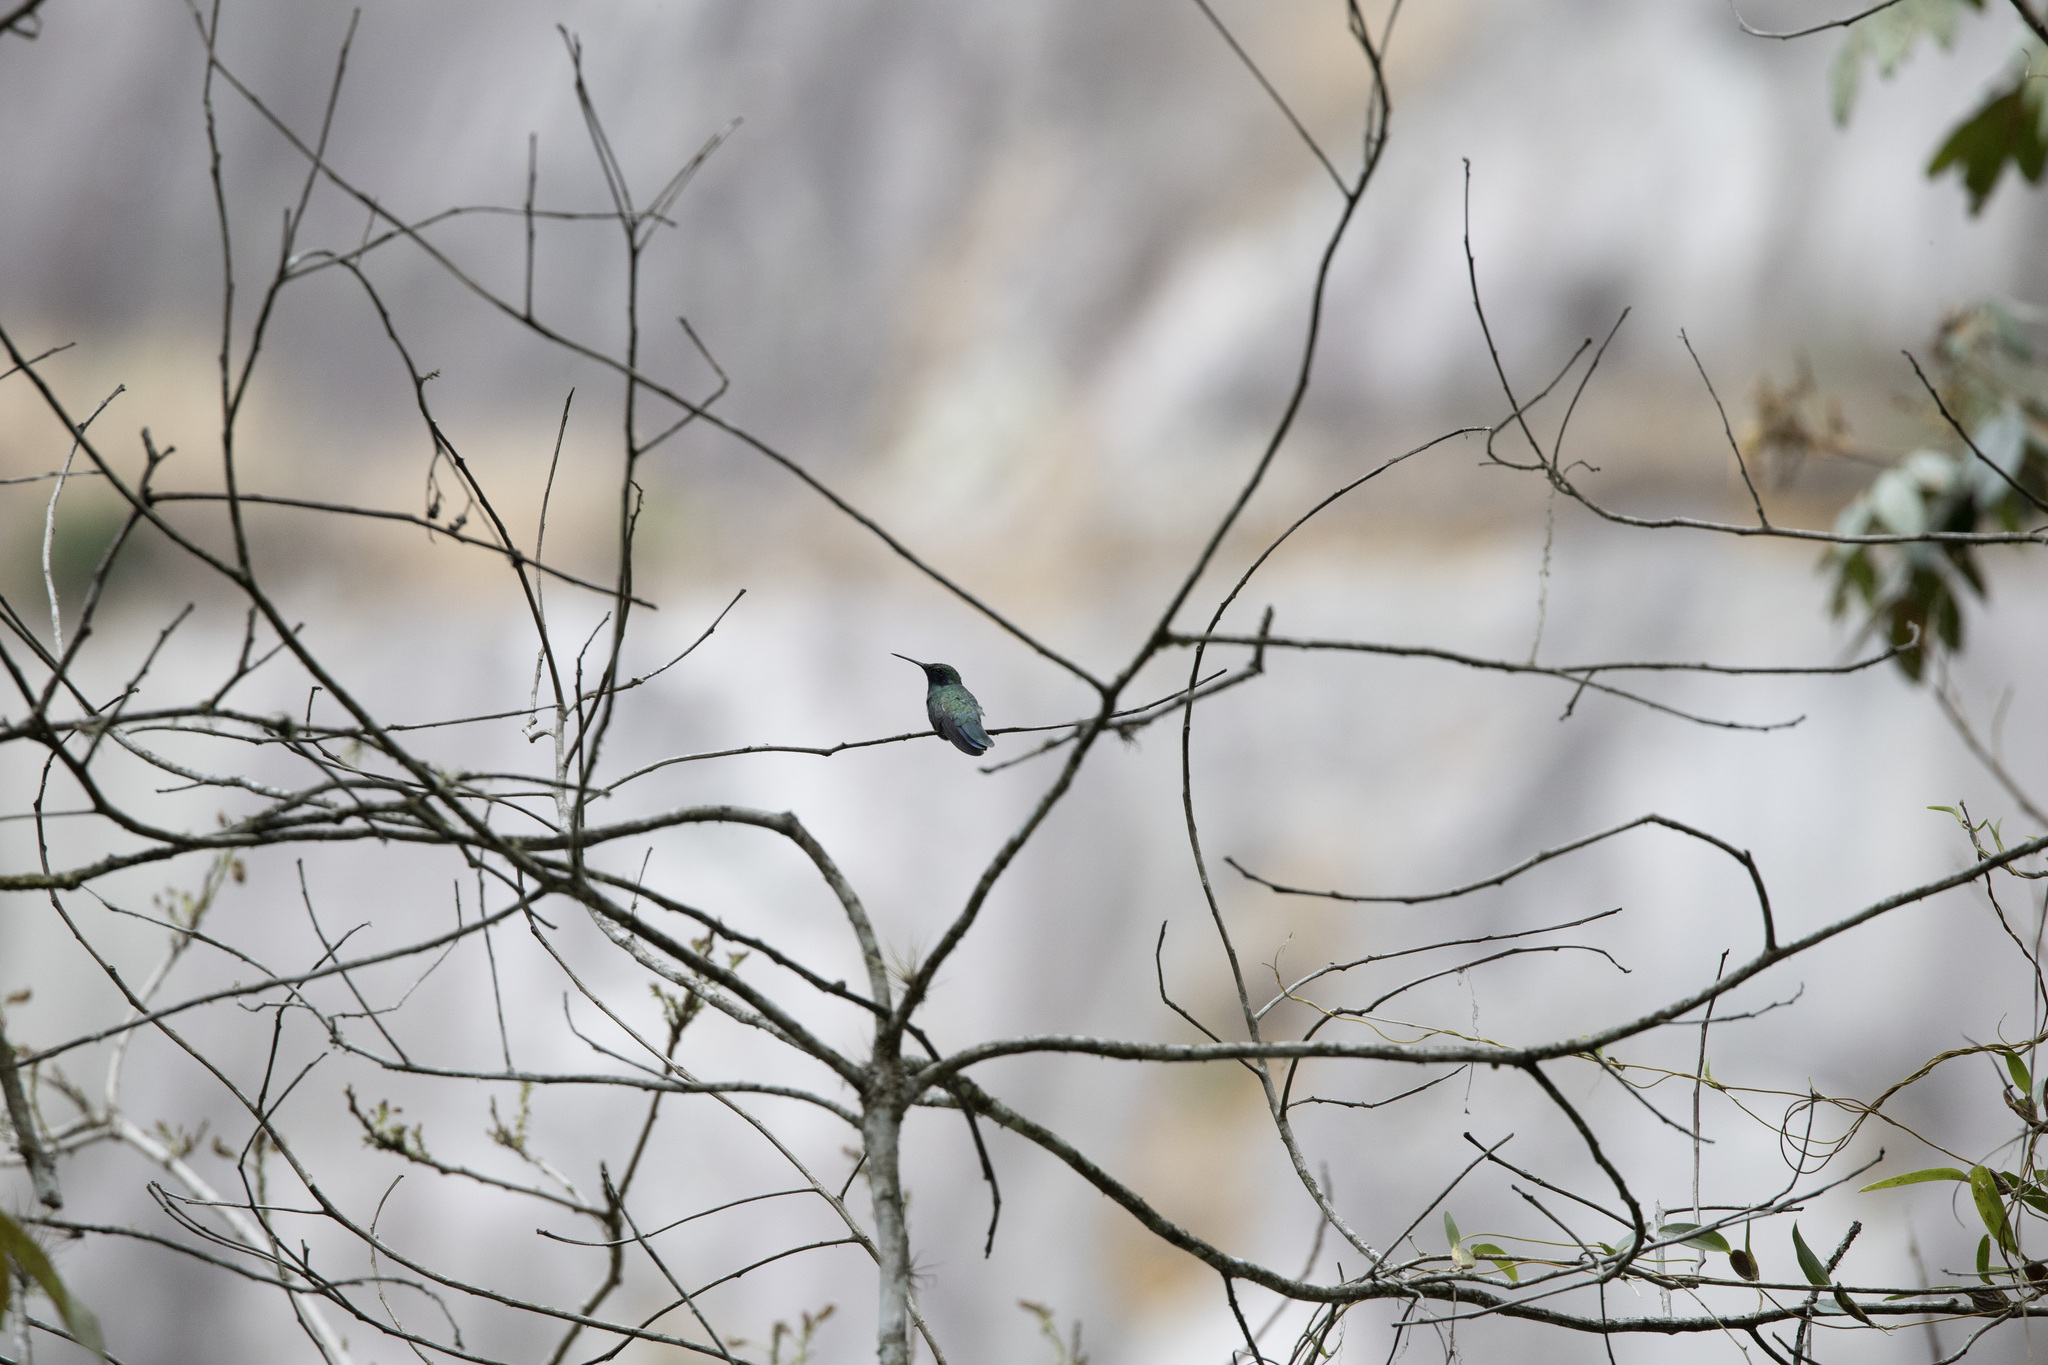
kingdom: Animalia
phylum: Chordata
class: Aves
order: Apodiformes
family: Trochilidae
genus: Colibri
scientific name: Colibri coruscans
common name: Sparkling violetear
